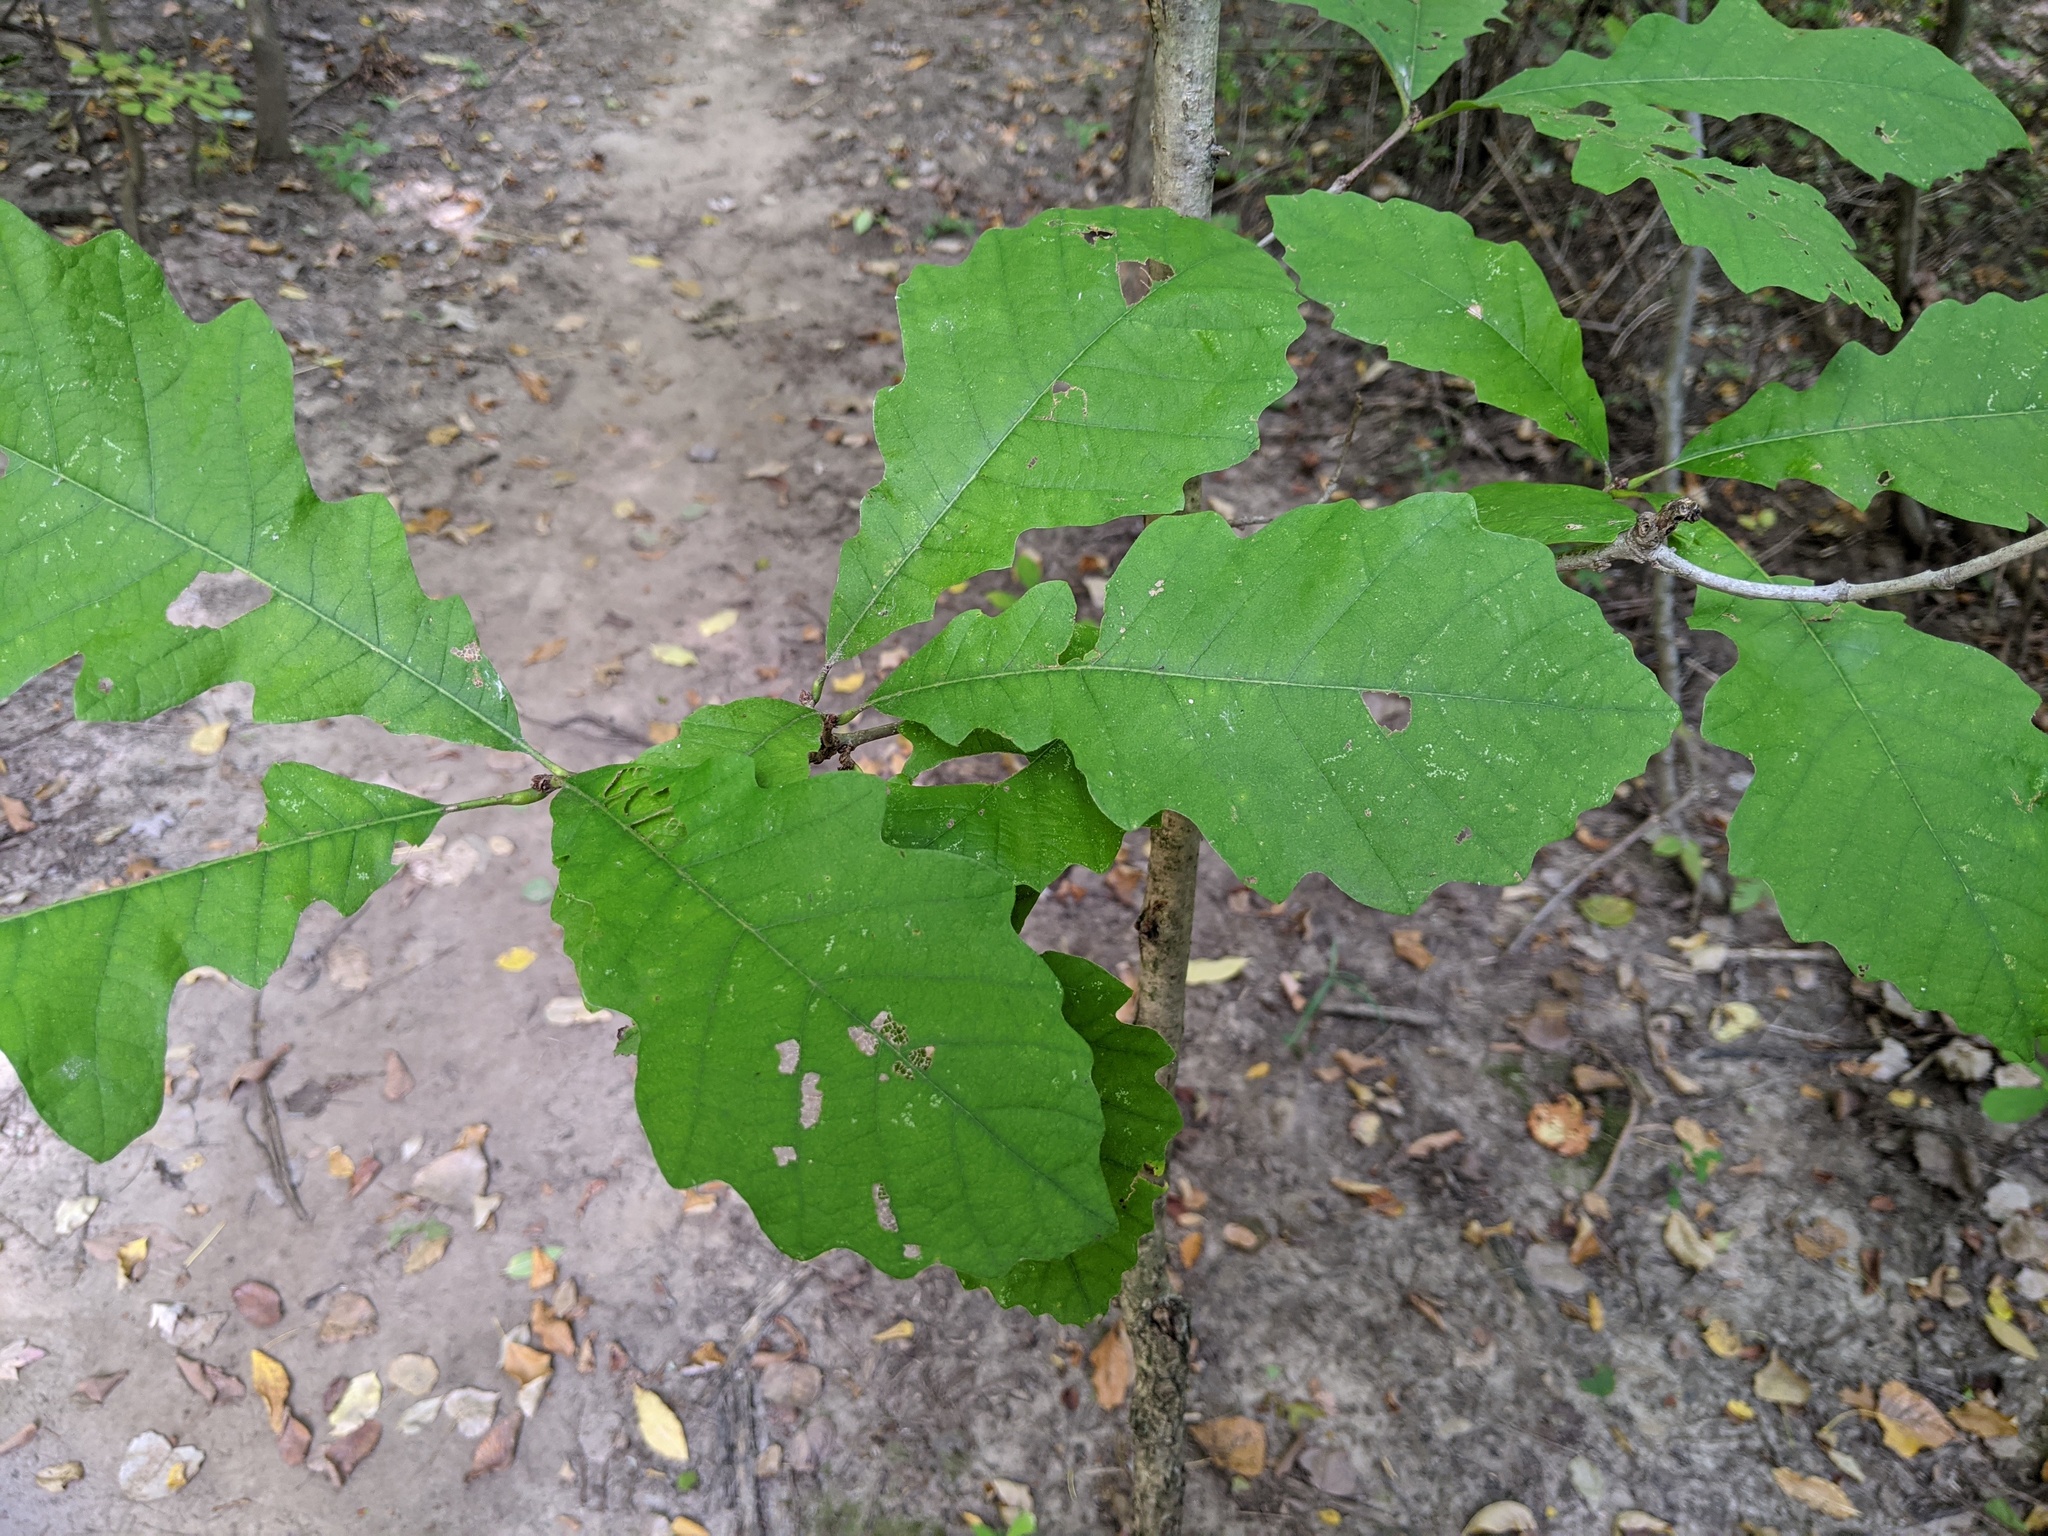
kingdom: Plantae
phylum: Tracheophyta
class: Magnoliopsida
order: Fagales
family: Fagaceae
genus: Quercus
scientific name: Quercus bicolor
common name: Swamp white oak
